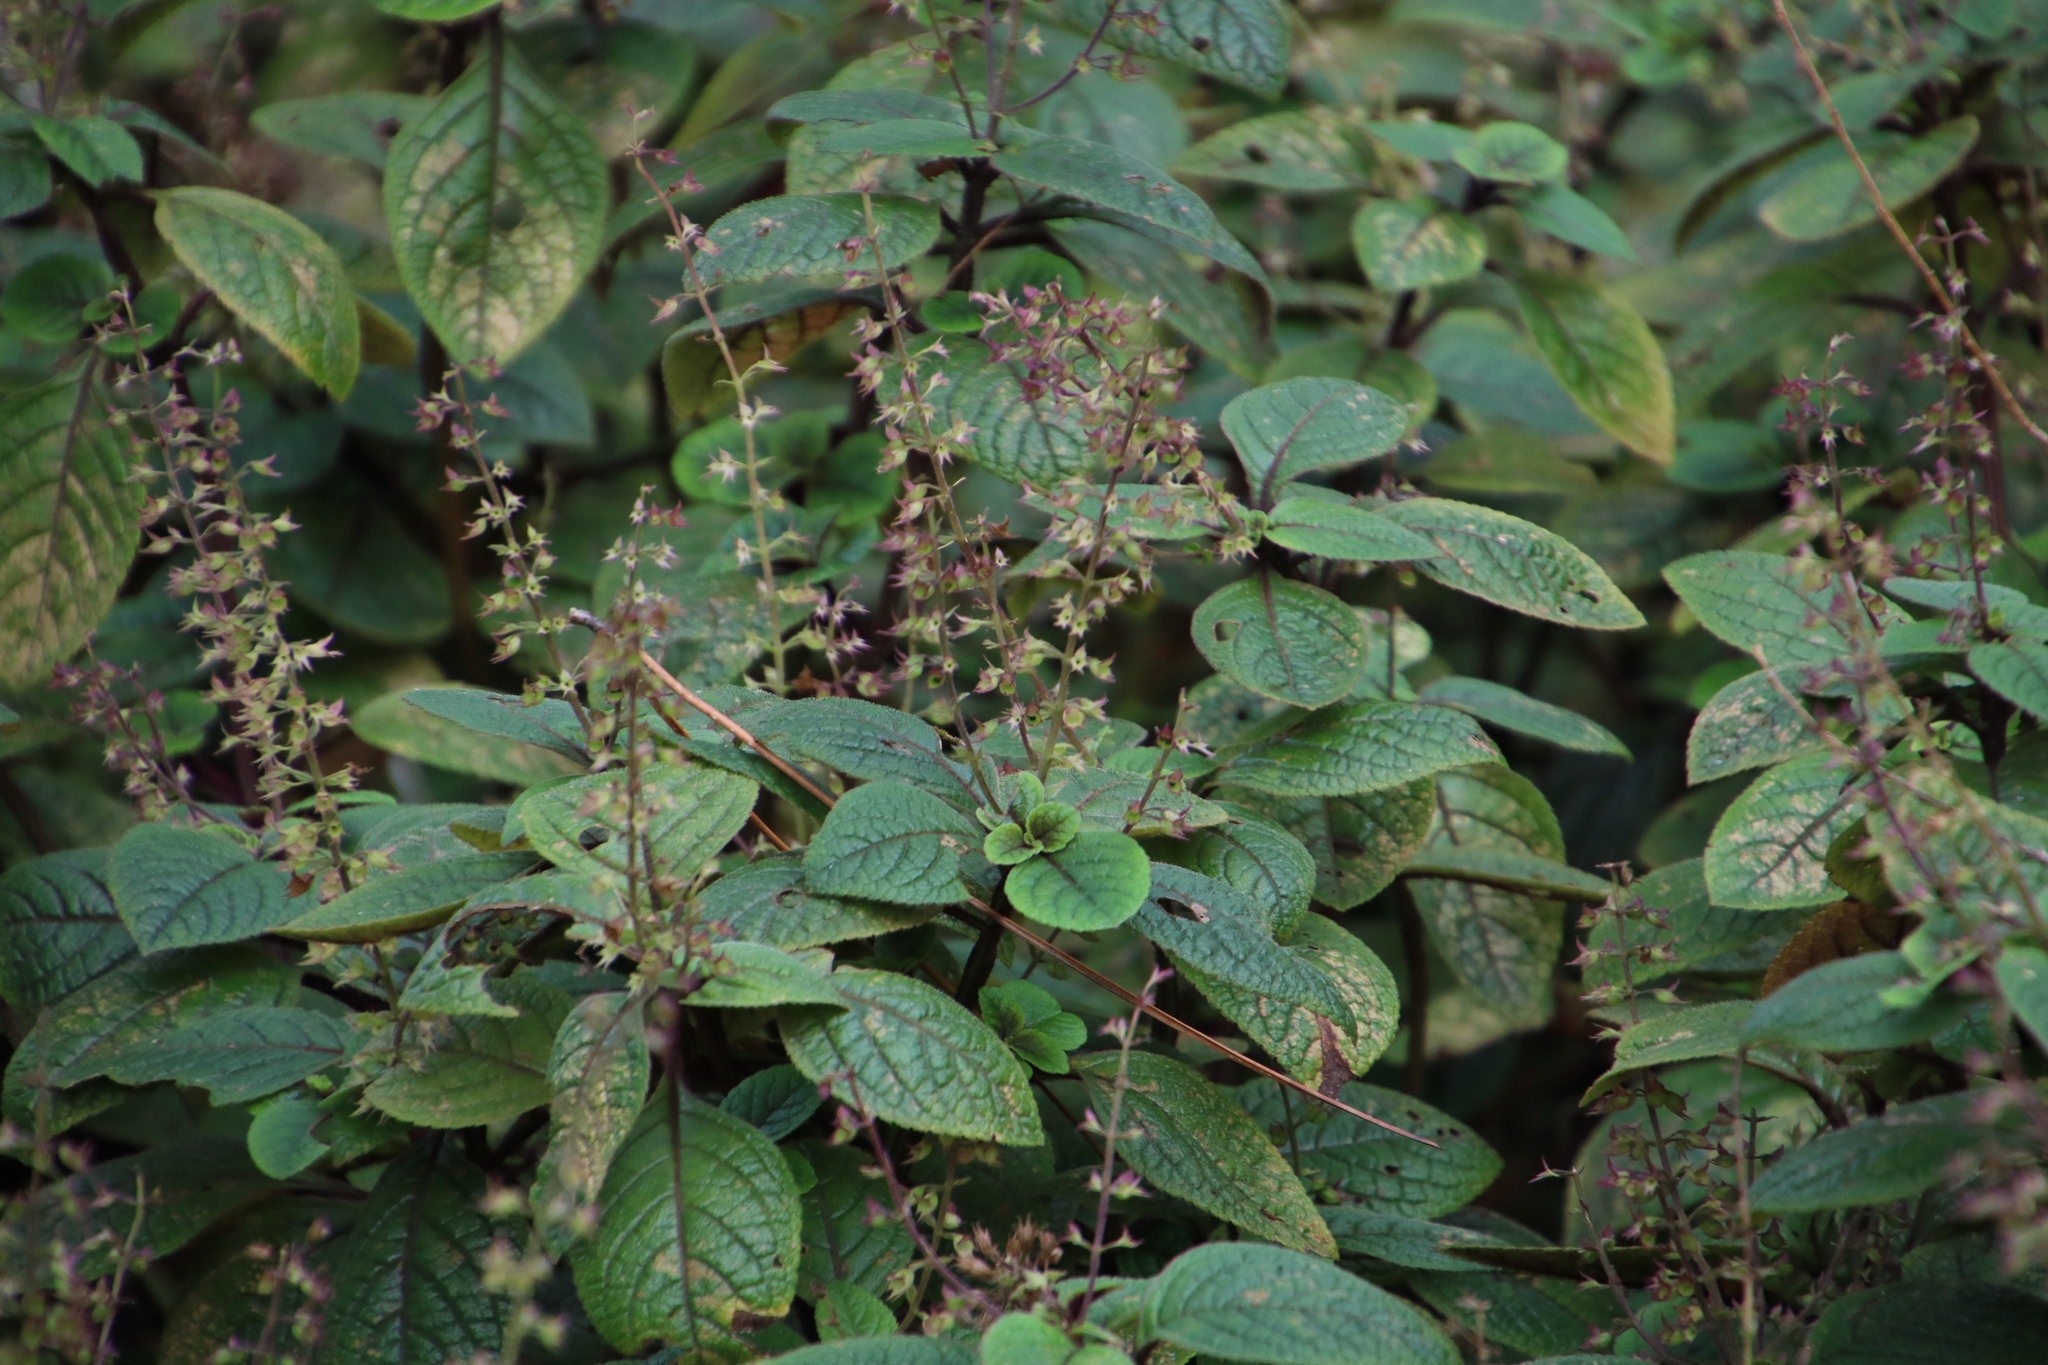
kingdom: Plantae
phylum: Tracheophyta
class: Magnoliopsida
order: Lamiales
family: Lamiaceae
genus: Plectranthus
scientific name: Plectranthus ciliatus
